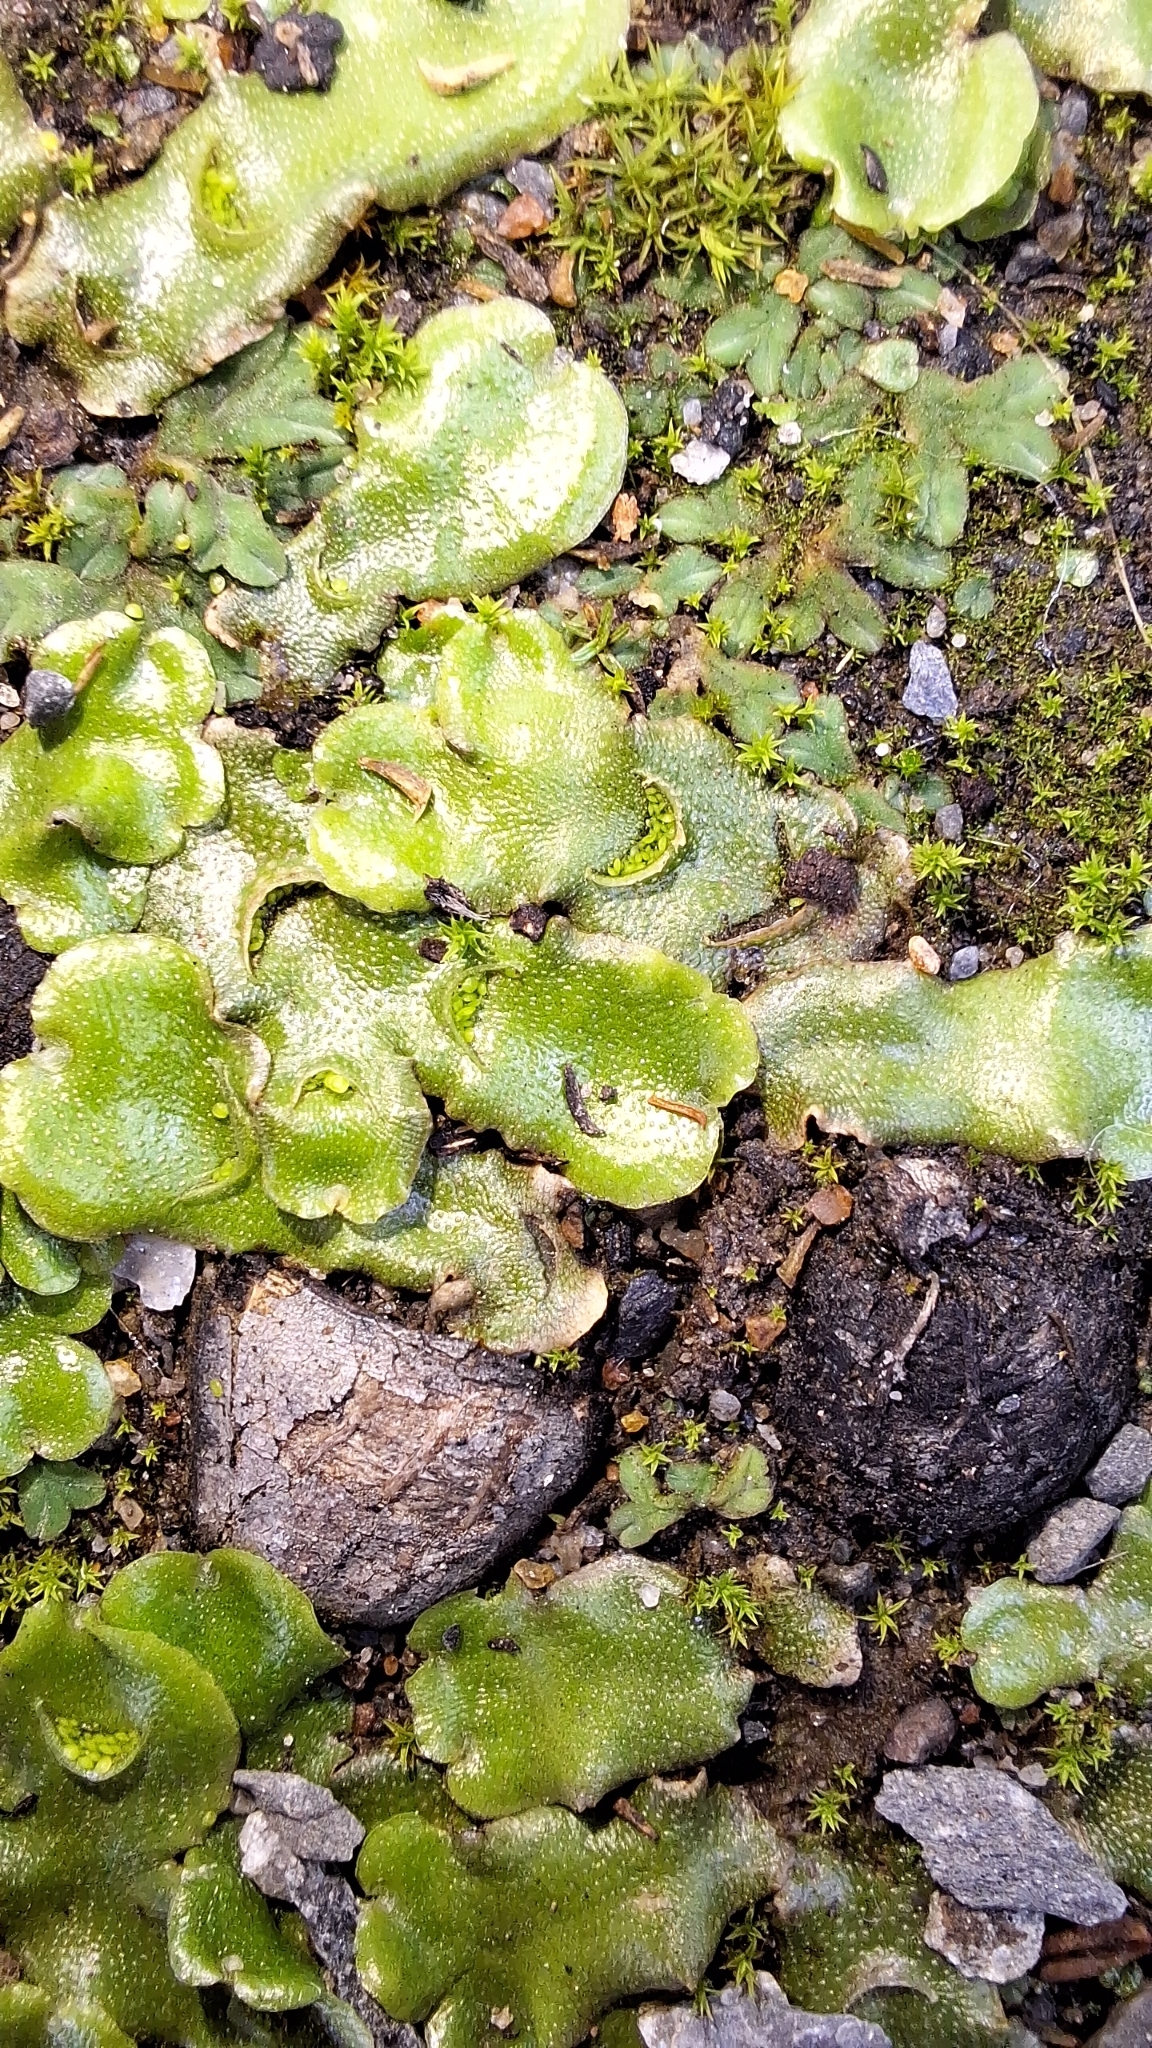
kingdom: Plantae
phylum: Marchantiophyta
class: Marchantiopsida
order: Lunulariales
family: Lunulariaceae
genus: Lunularia
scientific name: Lunularia cruciata
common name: Crescent-cup liverwort
